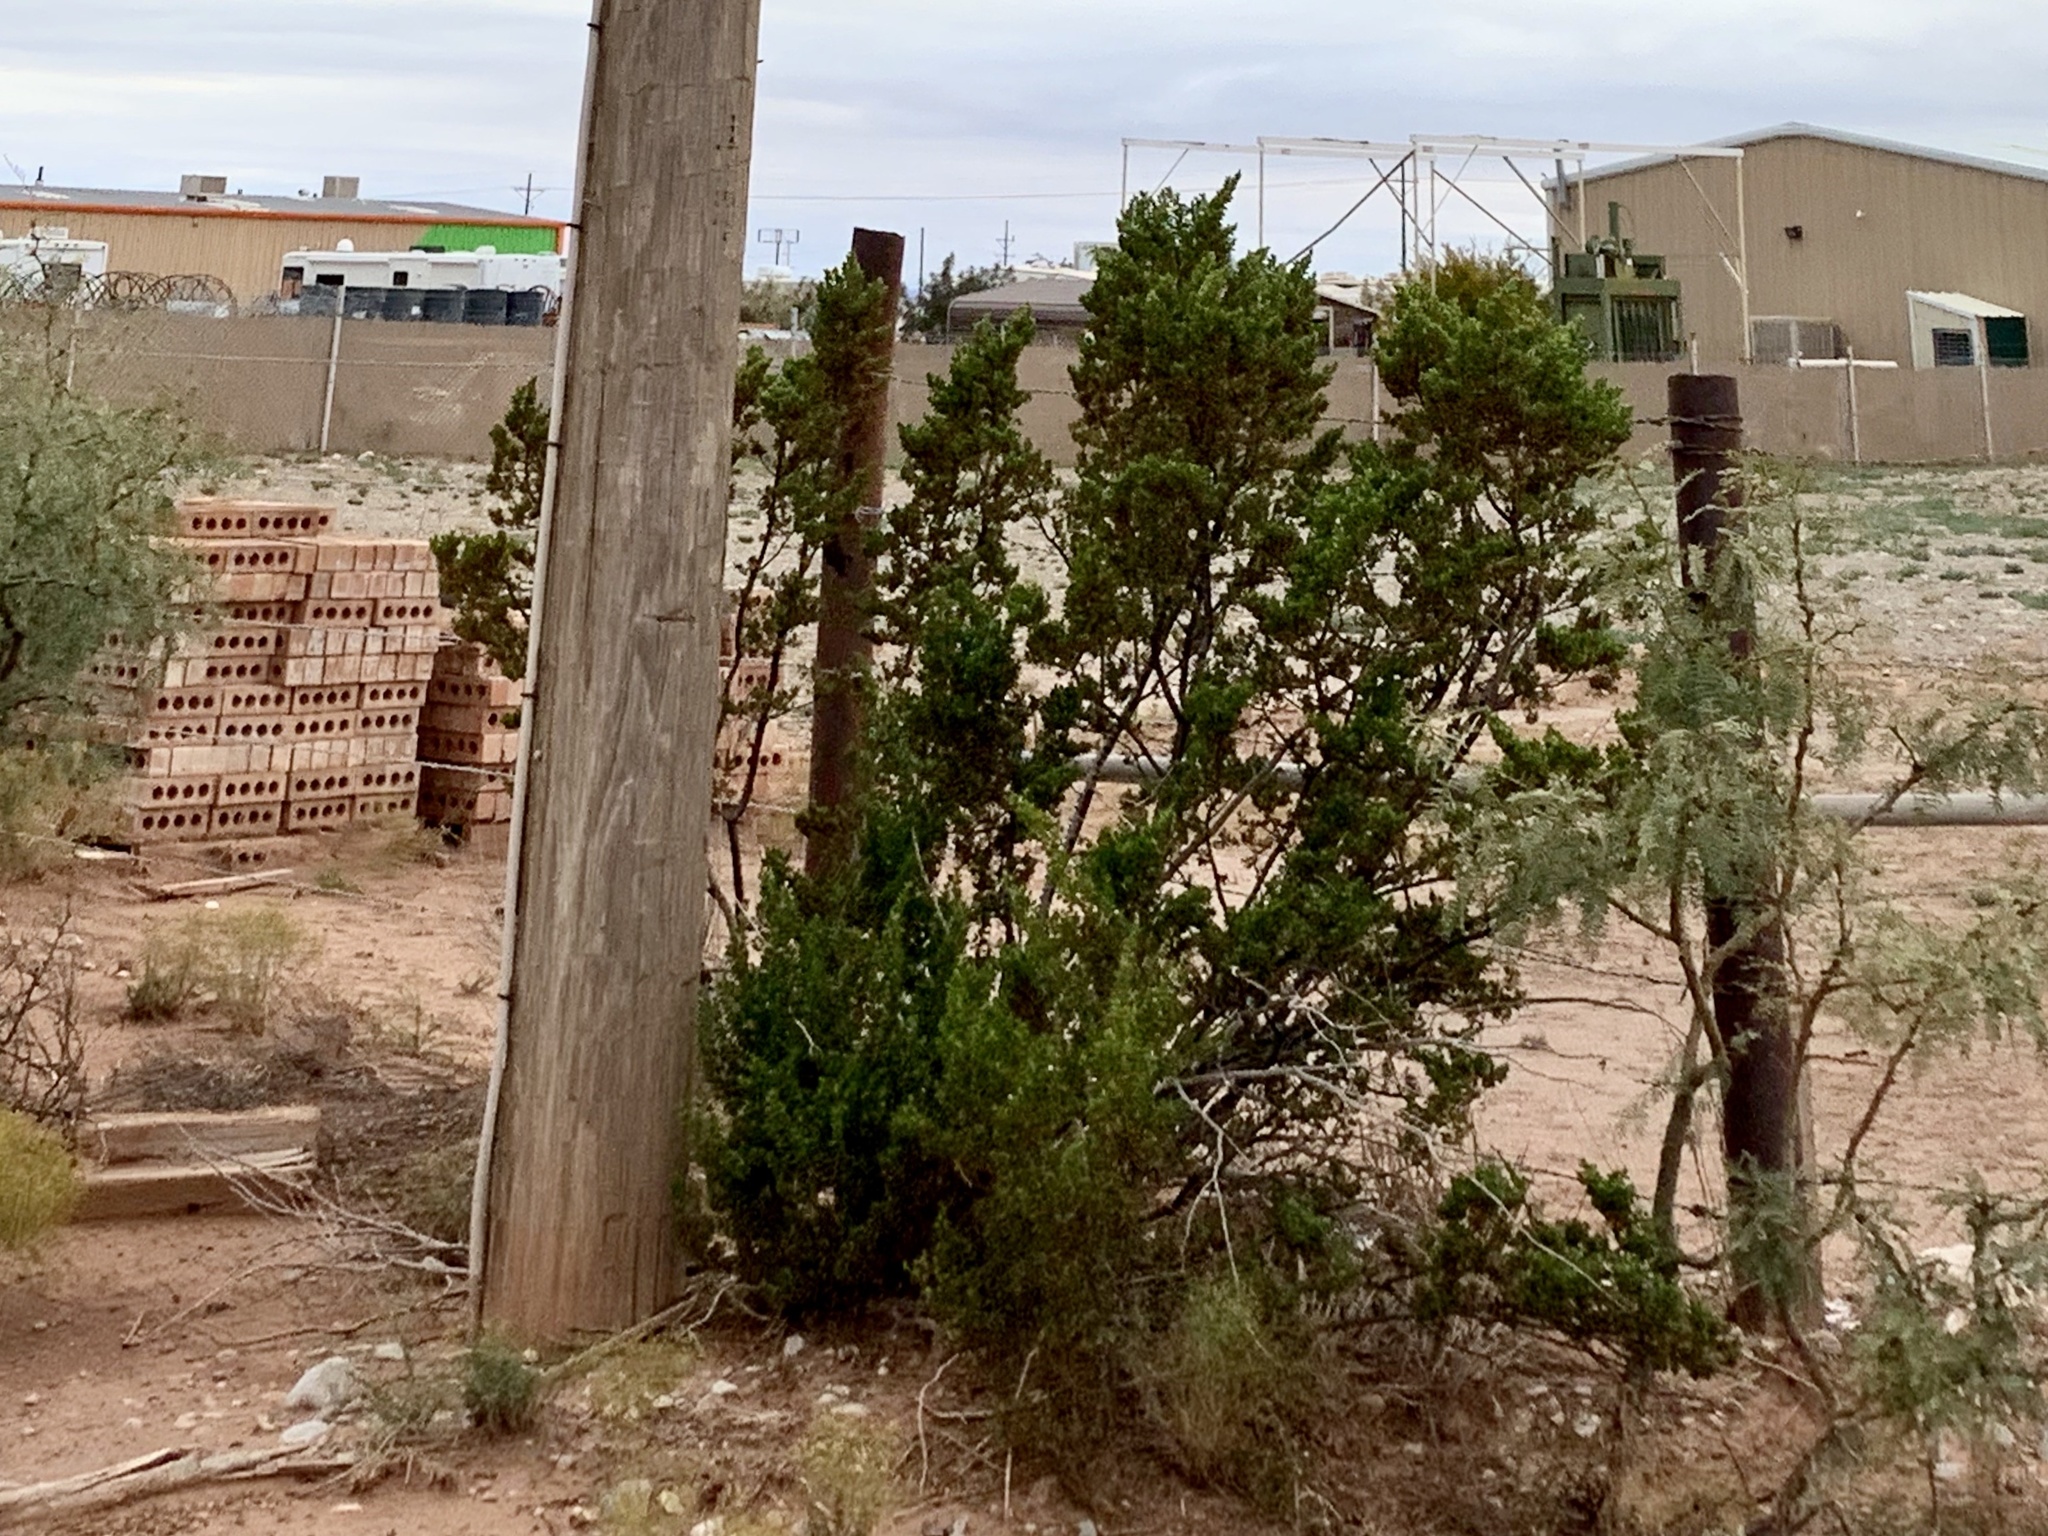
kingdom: Plantae
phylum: Tracheophyta
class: Magnoliopsida
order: Zygophyllales
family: Zygophyllaceae
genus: Larrea
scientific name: Larrea tridentata
